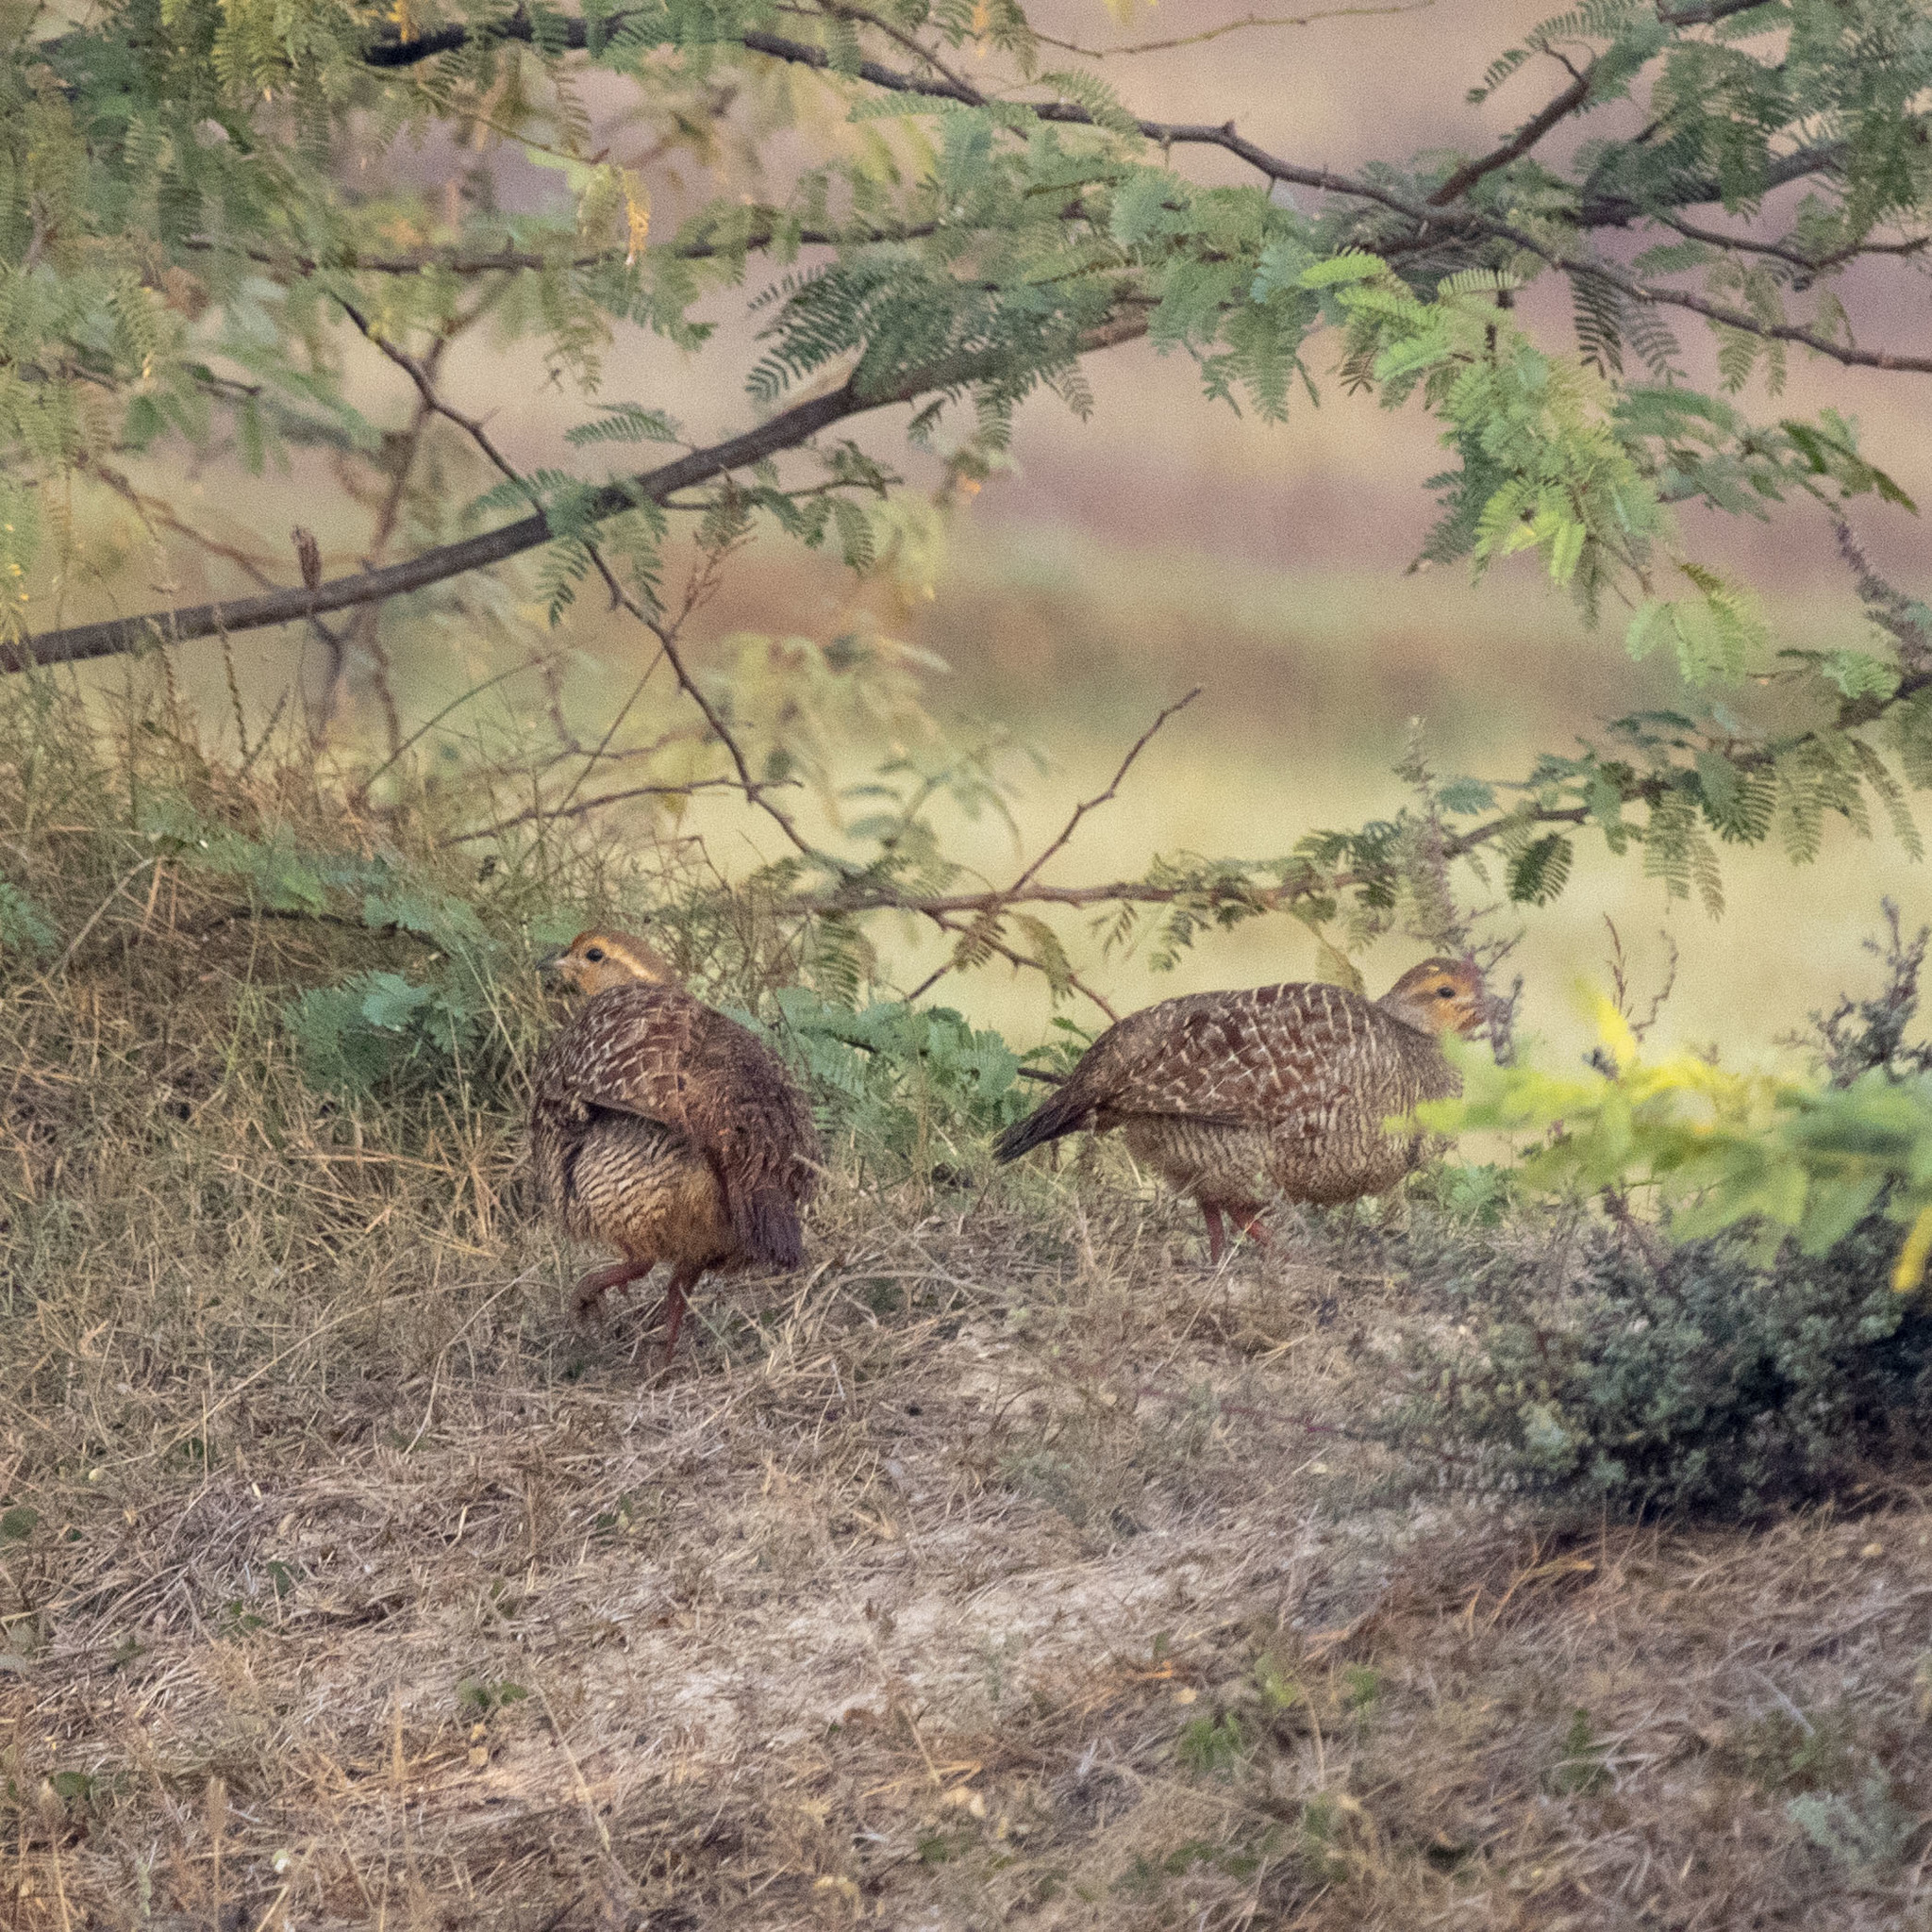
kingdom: Animalia
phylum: Chordata
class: Aves
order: Galliformes
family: Phasianidae
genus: Ortygornis
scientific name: Ortygornis pondicerianus
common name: Grey francolin
